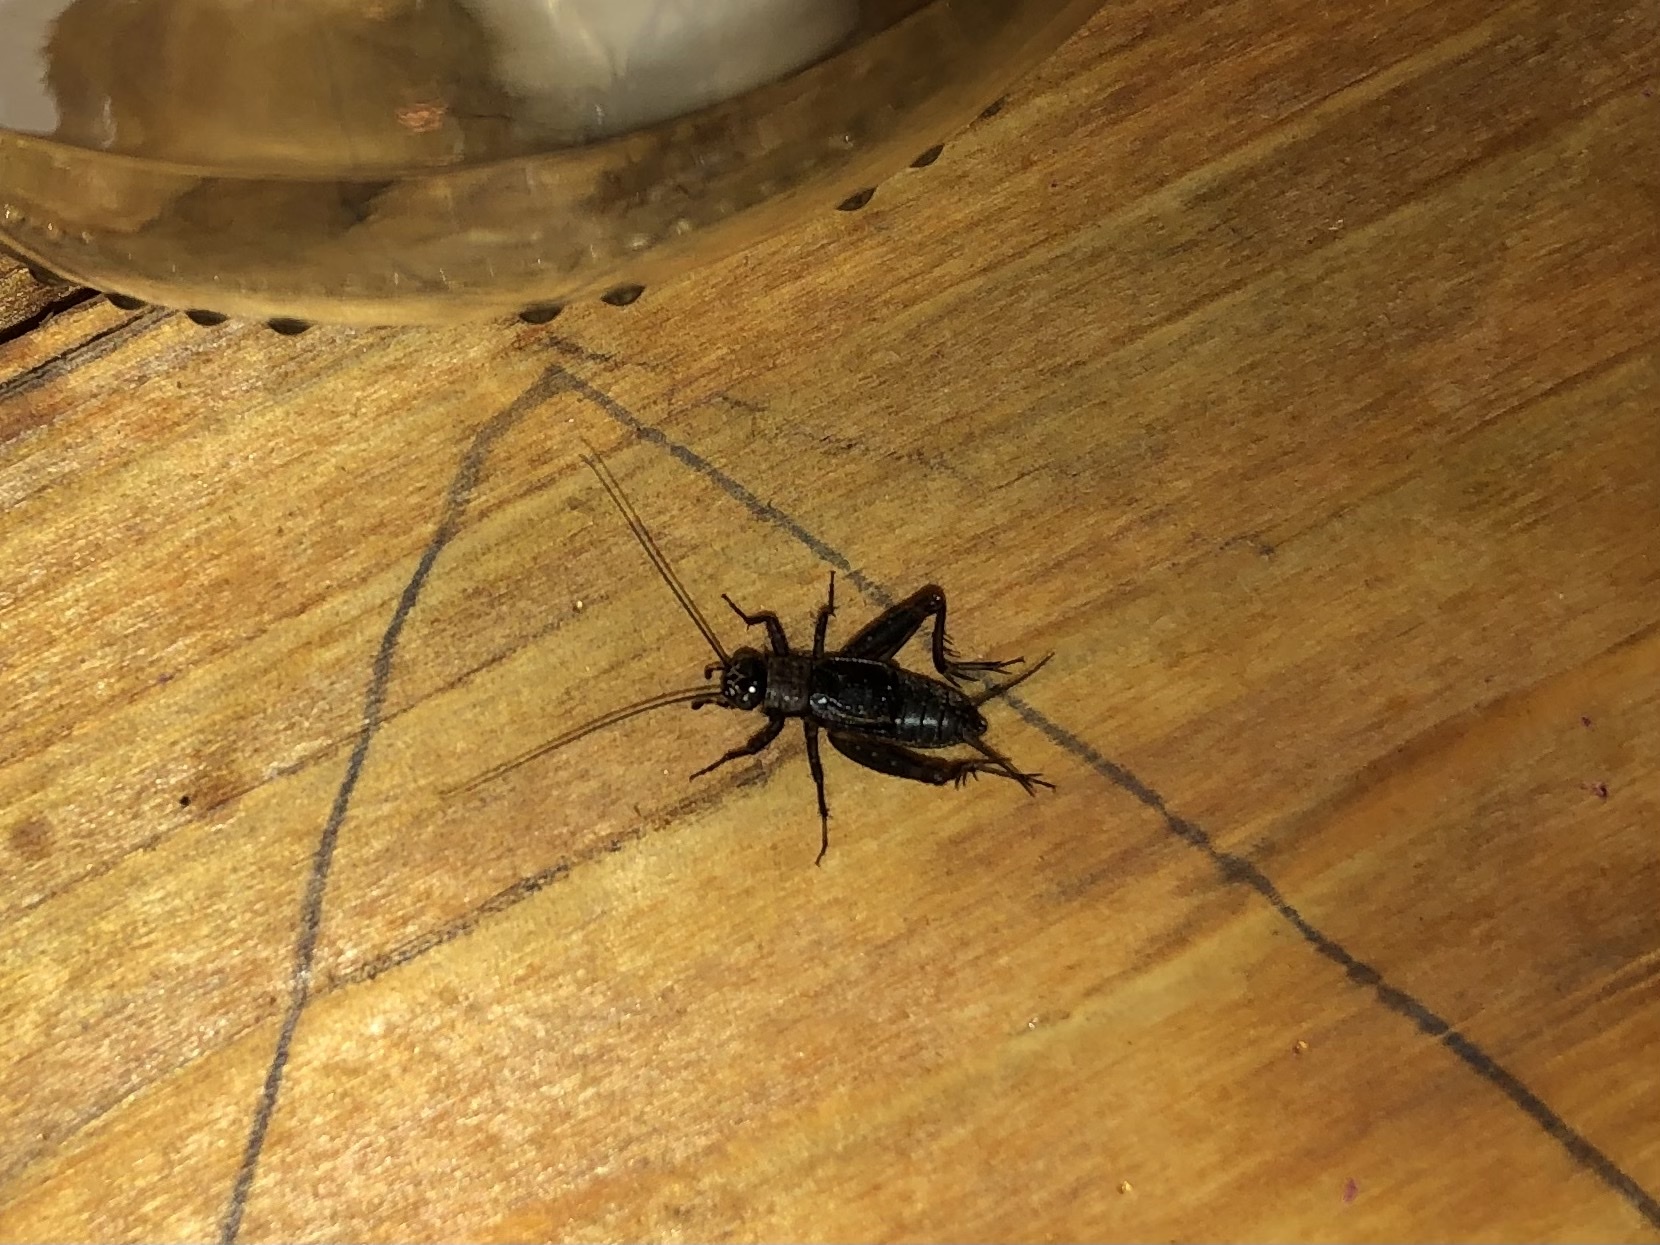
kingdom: Animalia
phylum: Arthropoda
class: Insecta
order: Orthoptera
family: Trigonidiidae
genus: Nemobius
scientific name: Nemobius sylvestris
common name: Wood-cricket
